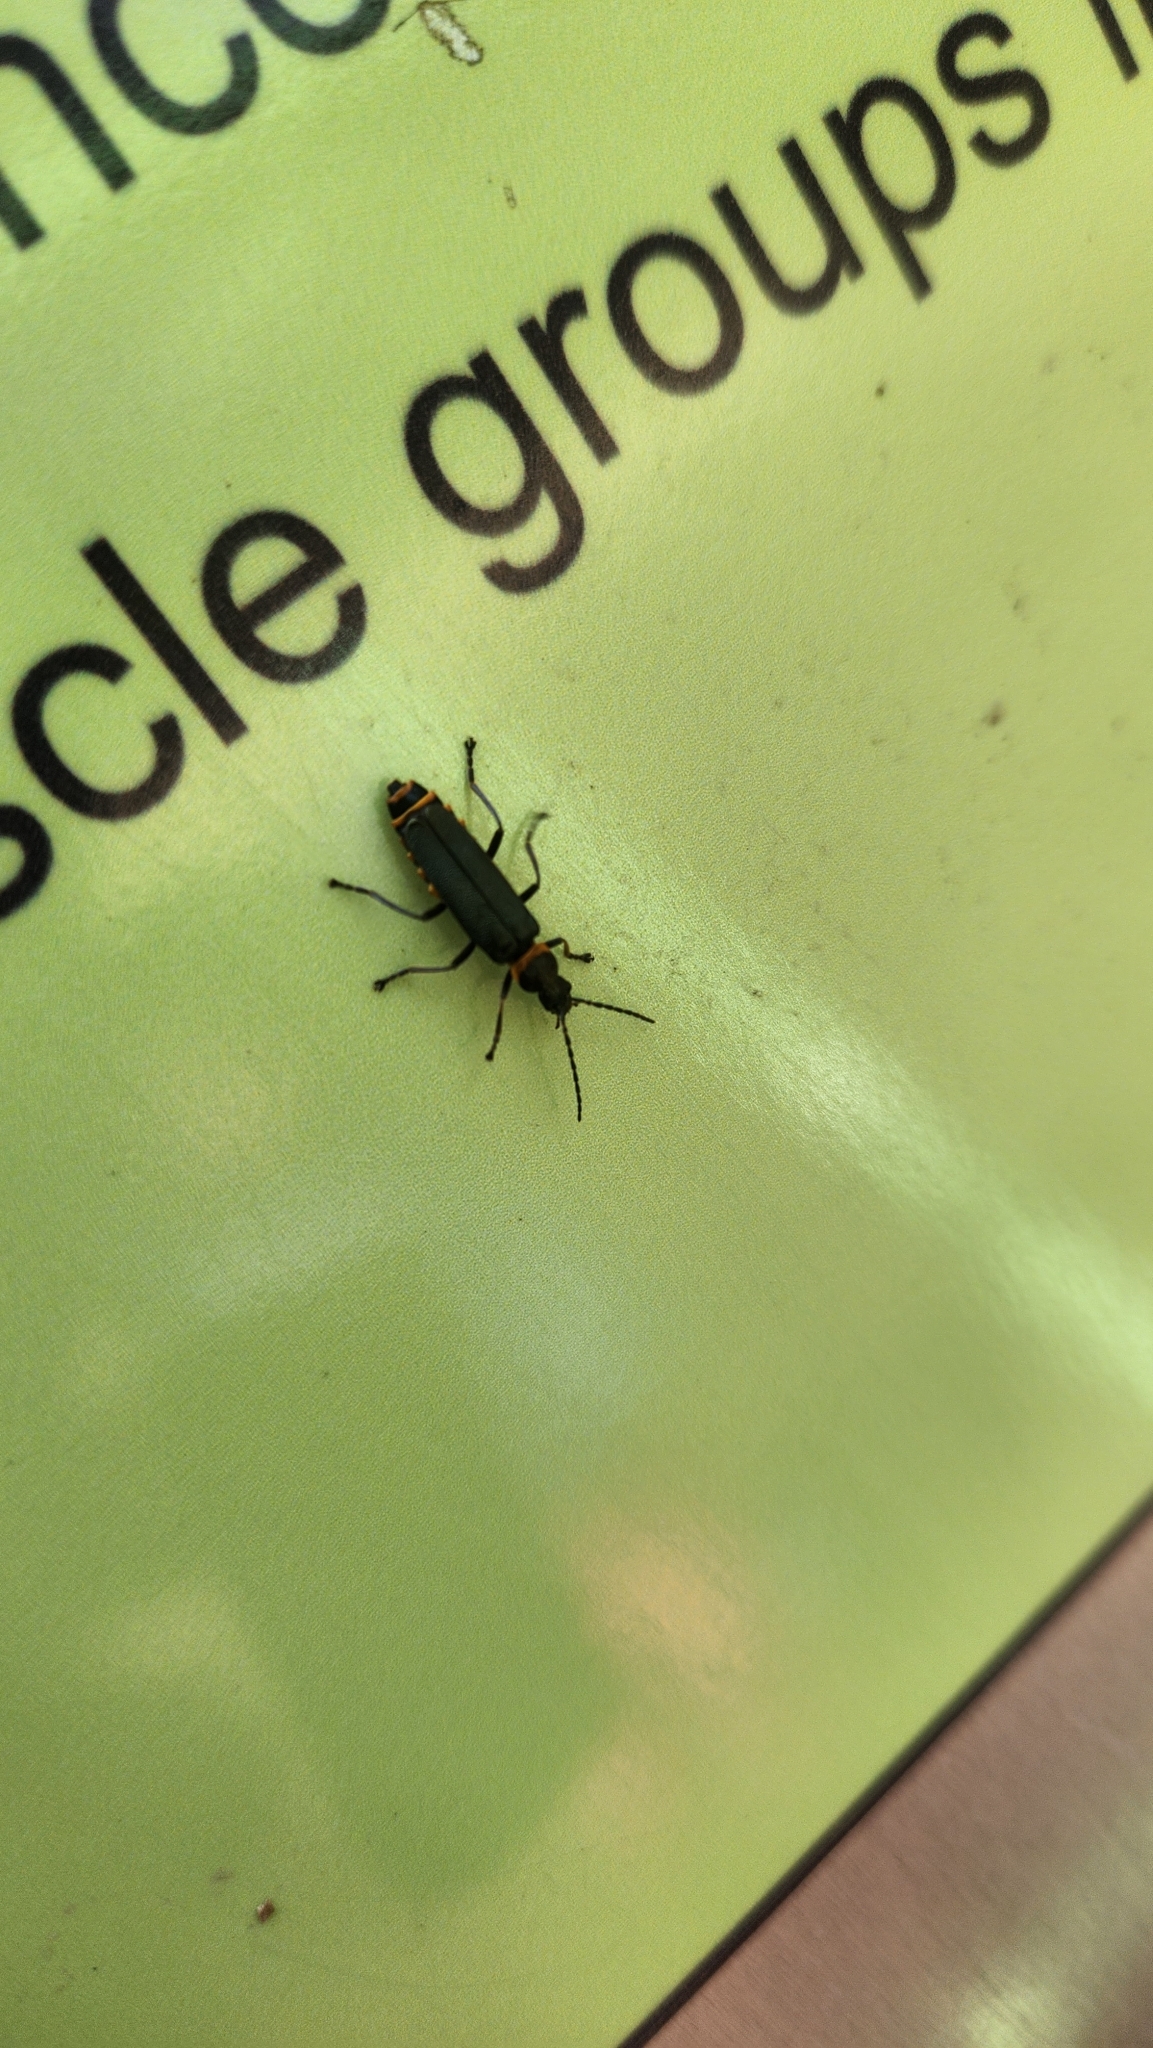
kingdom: Animalia
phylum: Arthropoda
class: Insecta
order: Coleoptera
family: Cantharidae
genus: Chauliognathus
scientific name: Chauliognathus
